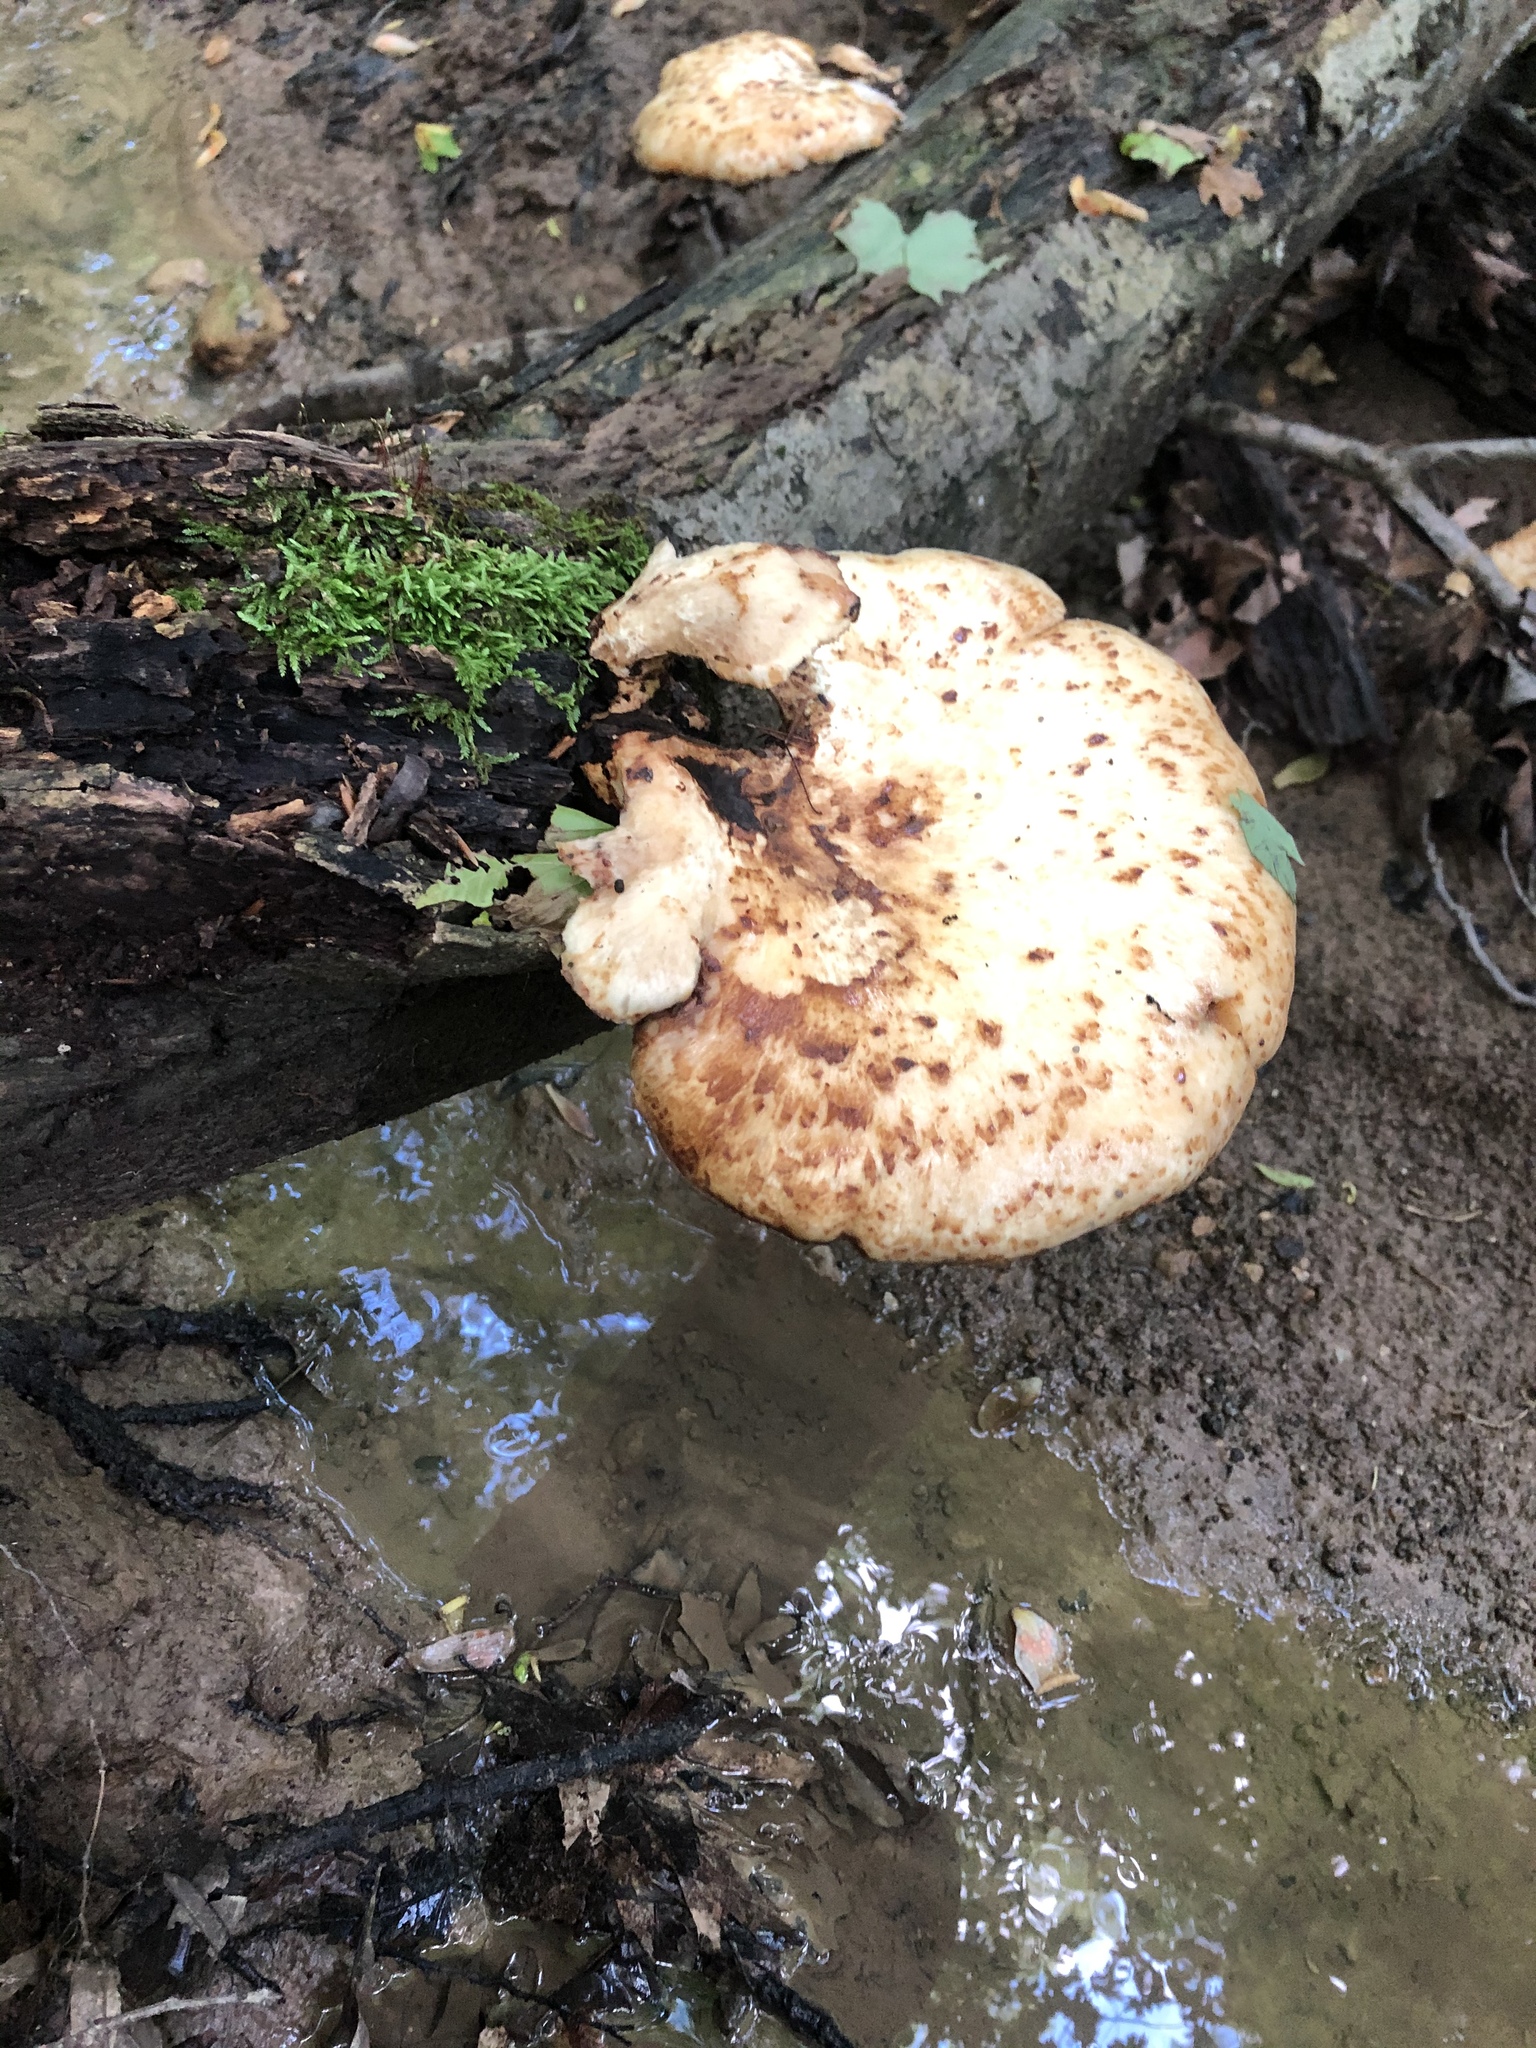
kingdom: Fungi
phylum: Basidiomycota
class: Agaricomycetes
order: Polyporales
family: Polyporaceae
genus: Cerioporus
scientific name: Cerioporus squamosus
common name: Dryad's saddle
